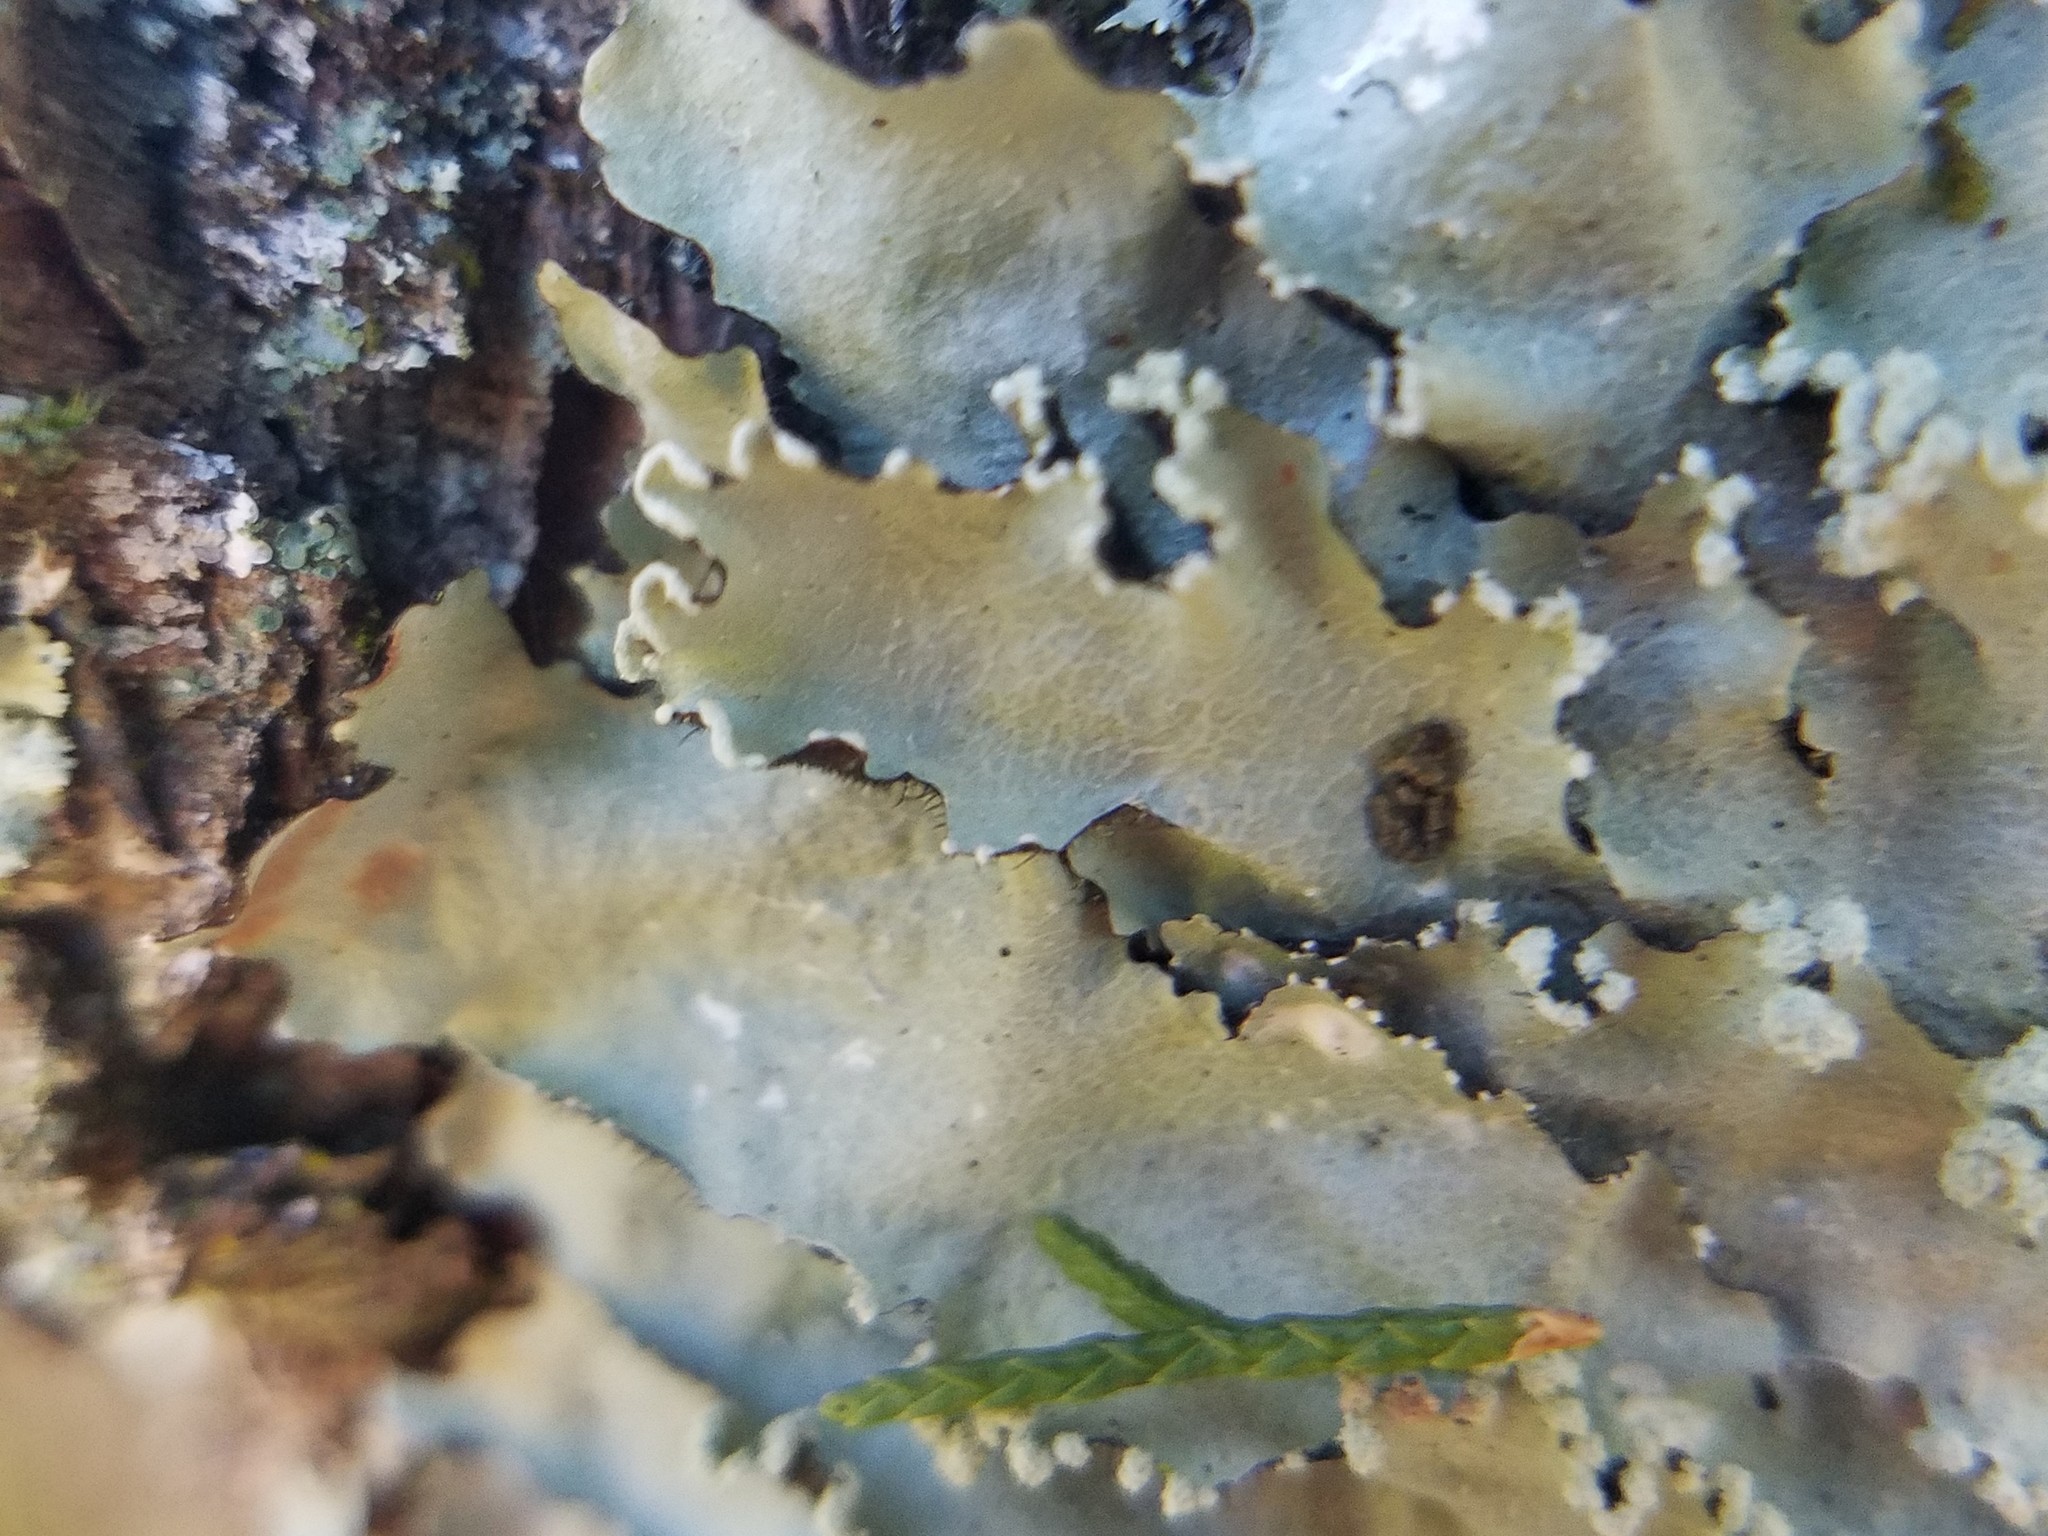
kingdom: Fungi
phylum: Ascomycota
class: Lecanoromycetes
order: Lecanorales
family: Parmeliaceae
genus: Rimelia
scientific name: Rimelia subisidiosa
